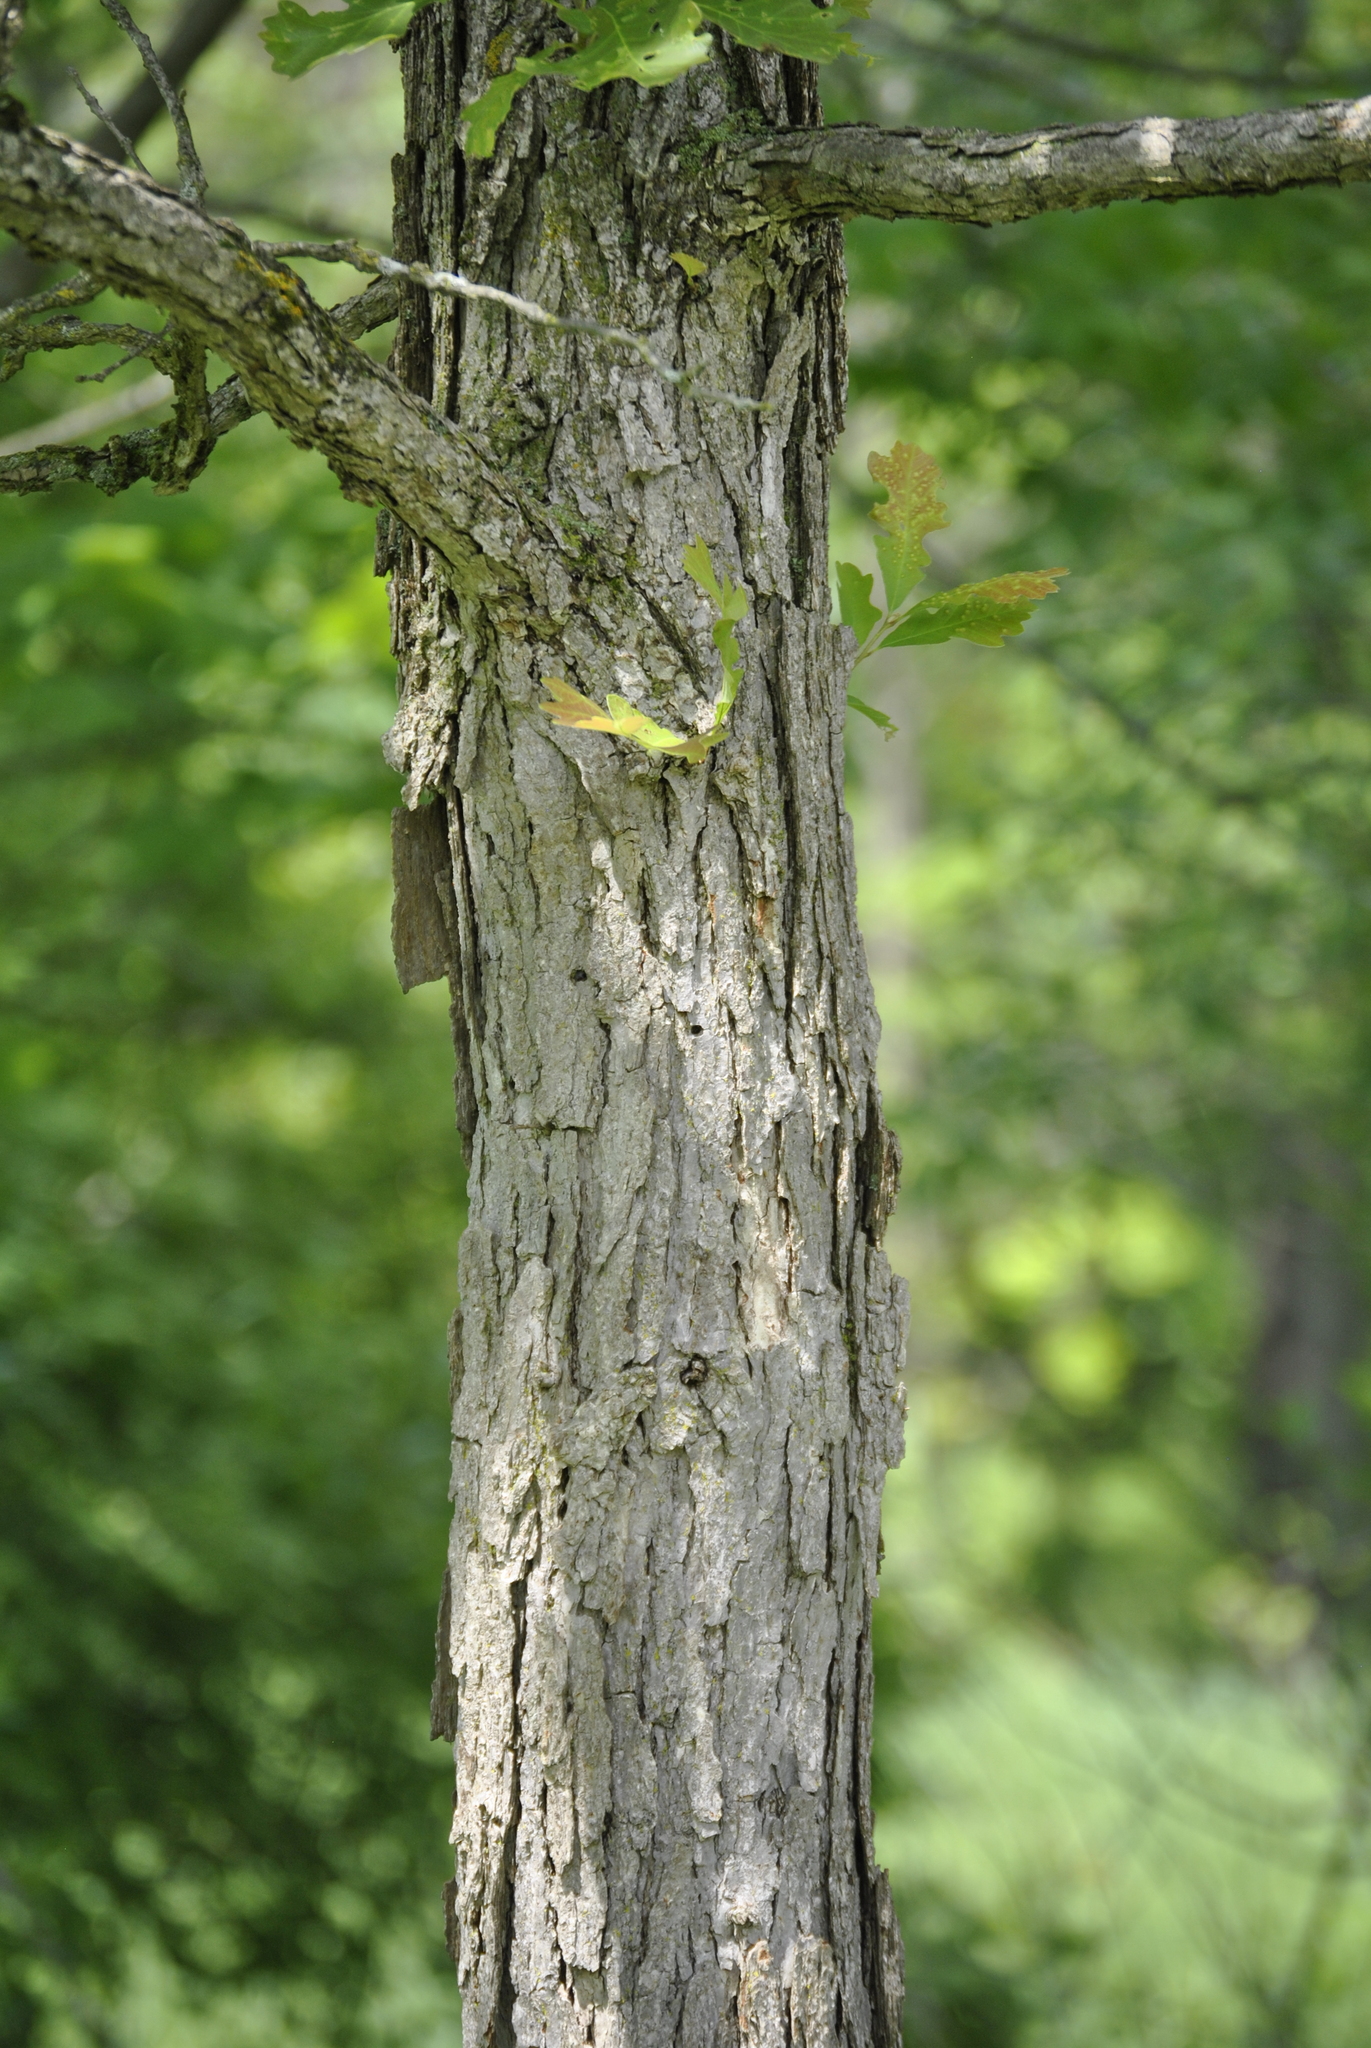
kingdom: Plantae
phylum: Tracheophyta
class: Magnoliopsida
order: Fagales
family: Fagaceae
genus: Quercus
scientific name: Quercus macrocarpa
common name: Bur oak
